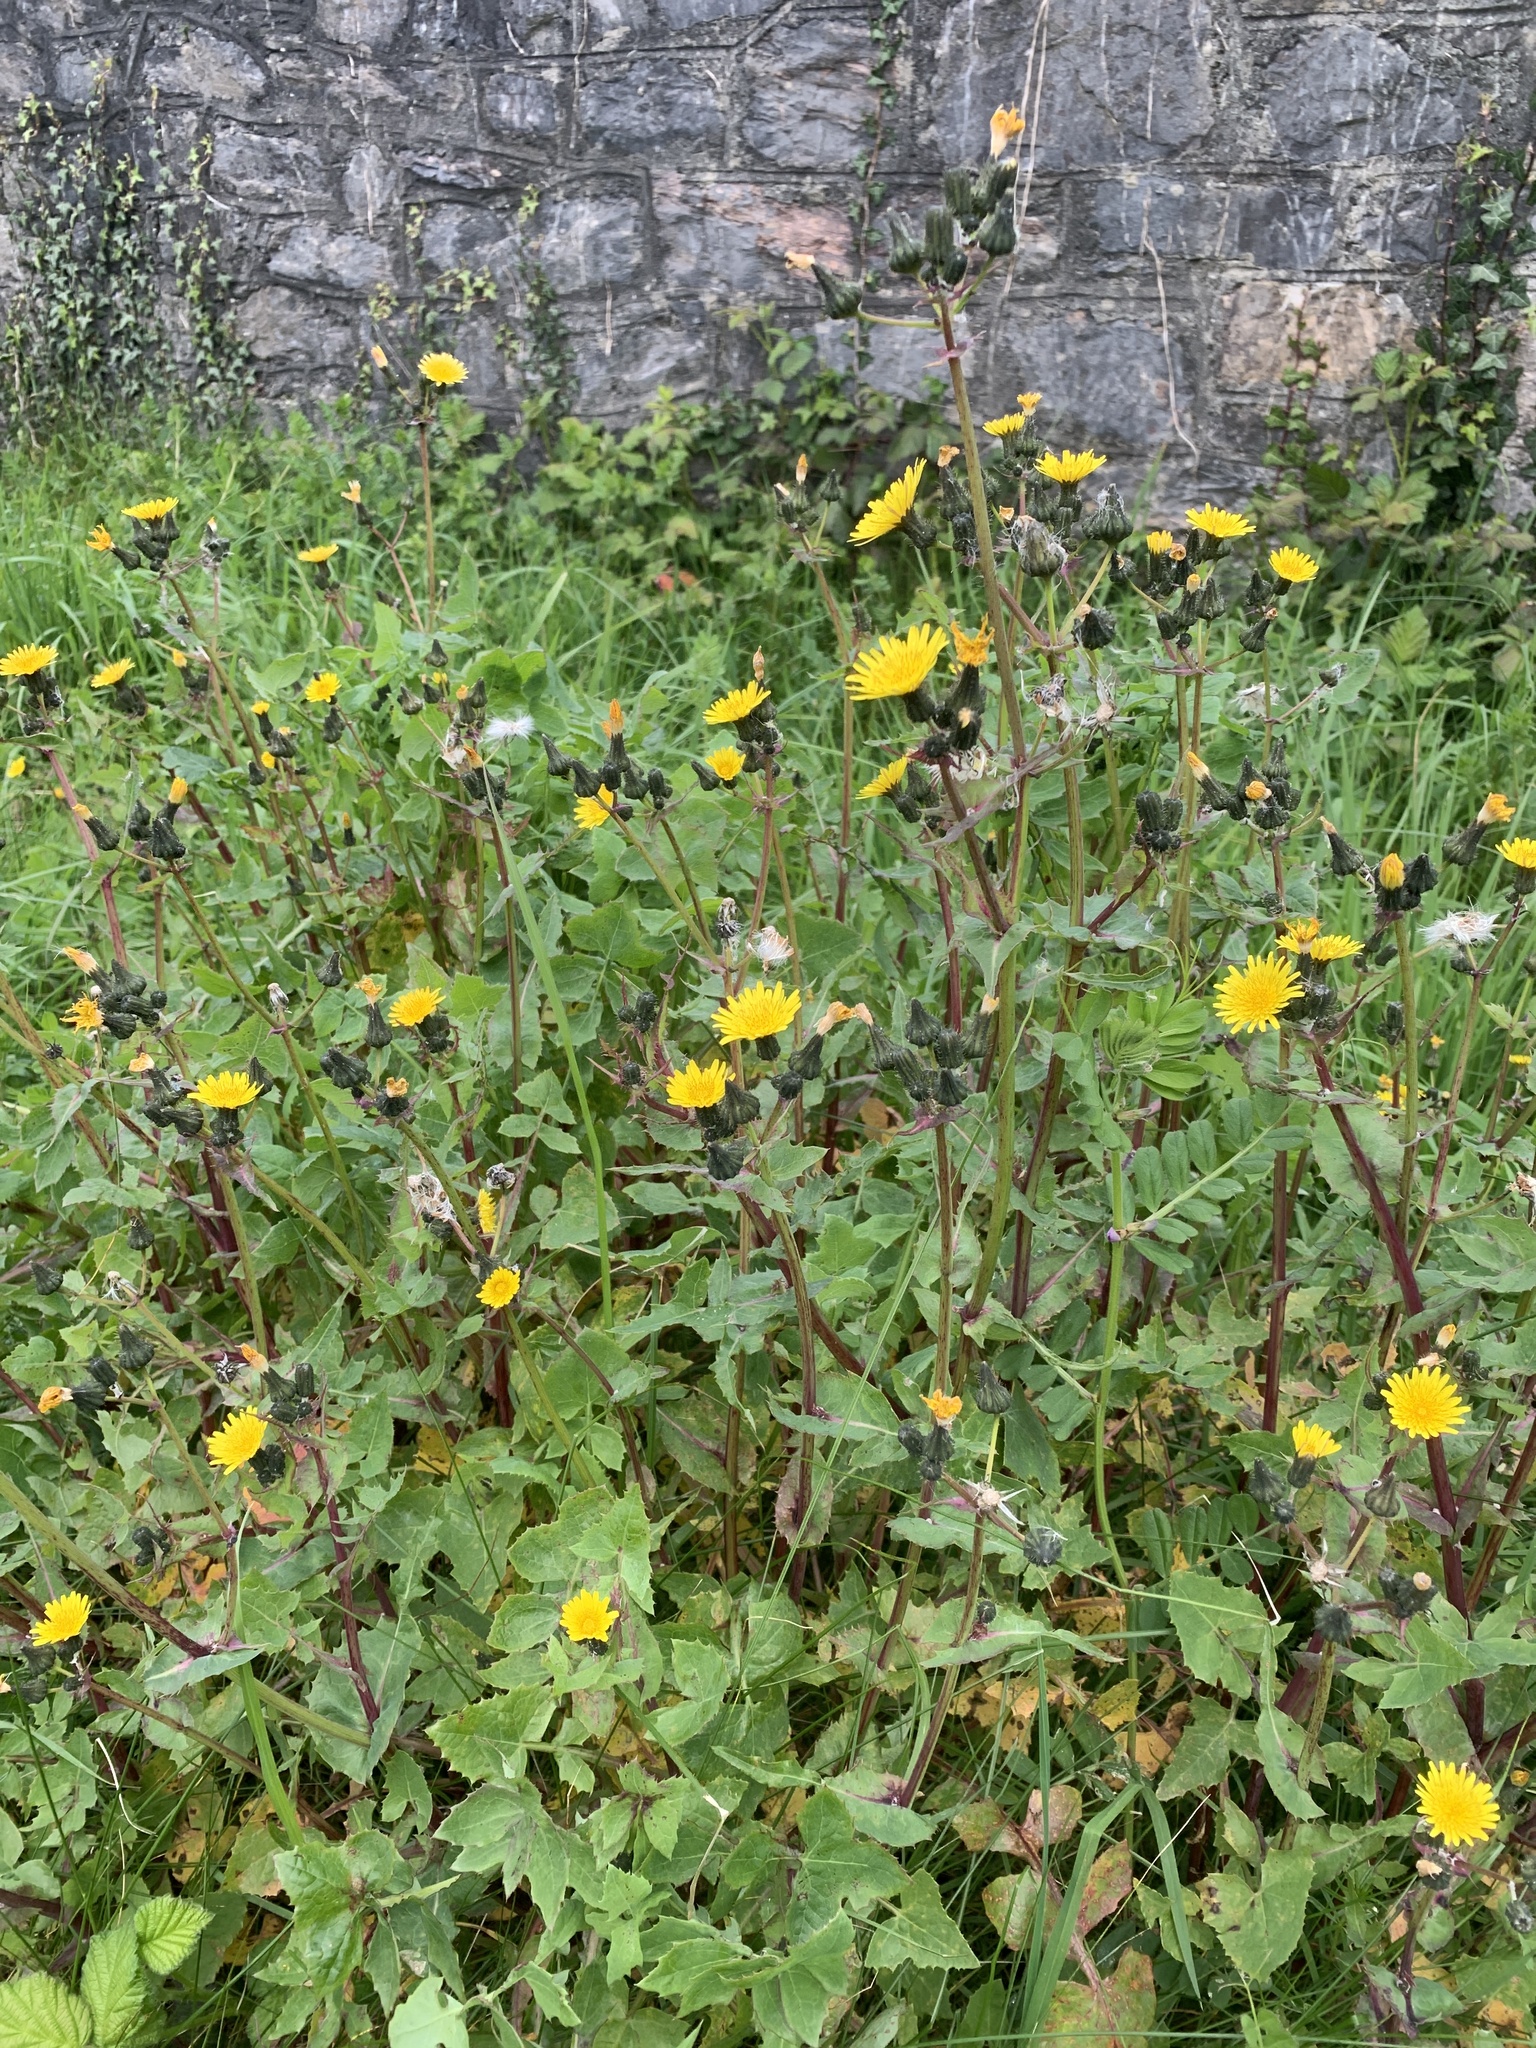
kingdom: Plantae
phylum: Tracheophyta
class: Magnoliopsida
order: Asterales
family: Asteraceae
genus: Sonchus
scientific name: Sonchus oleraceus
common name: Common sowthistle
